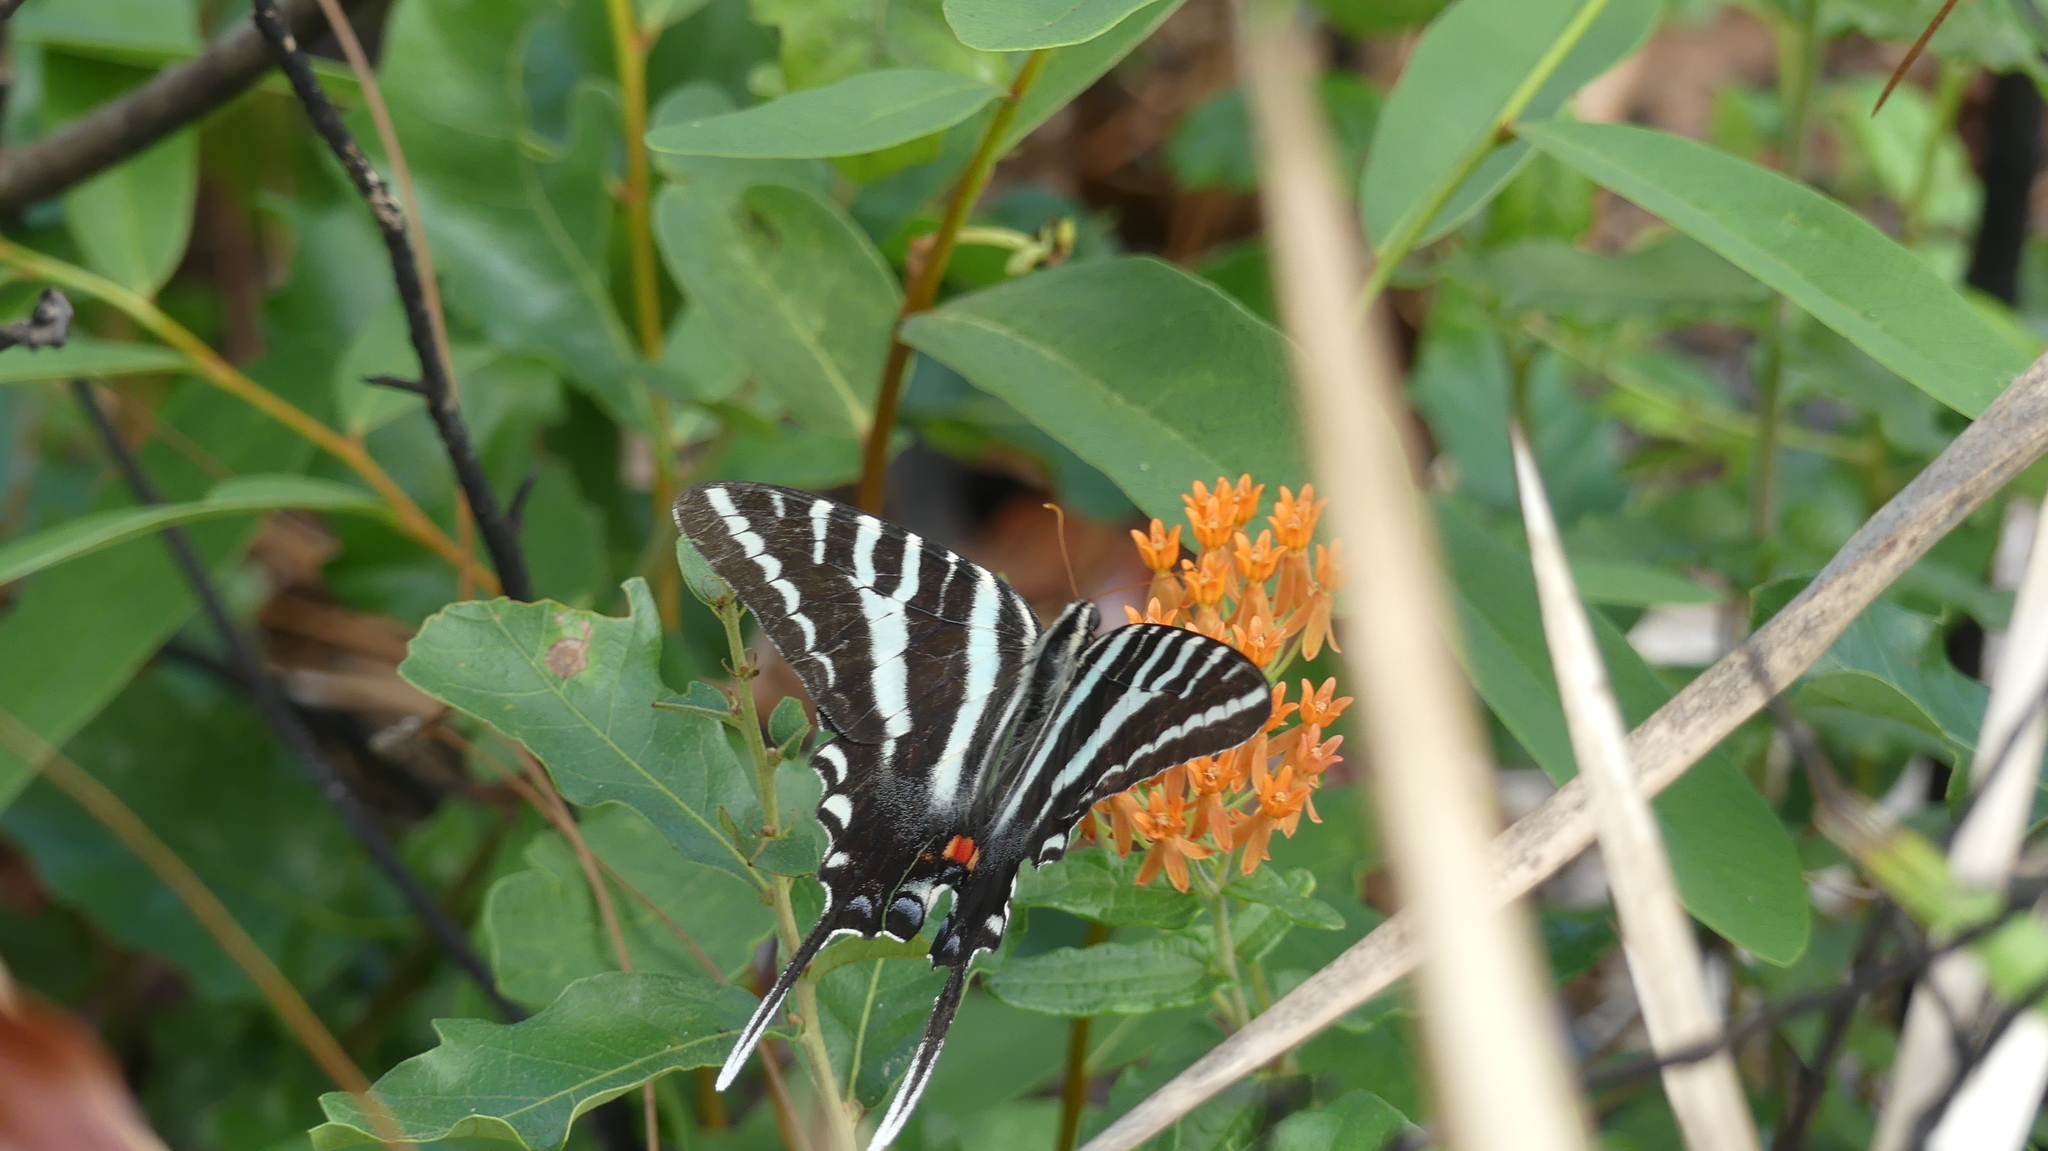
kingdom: Animalia
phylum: Arthropoda
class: Insecta
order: Lepidoptera
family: Papilionidae
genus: Protographium
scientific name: Protographium marcellus
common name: Zebra swallowtail
